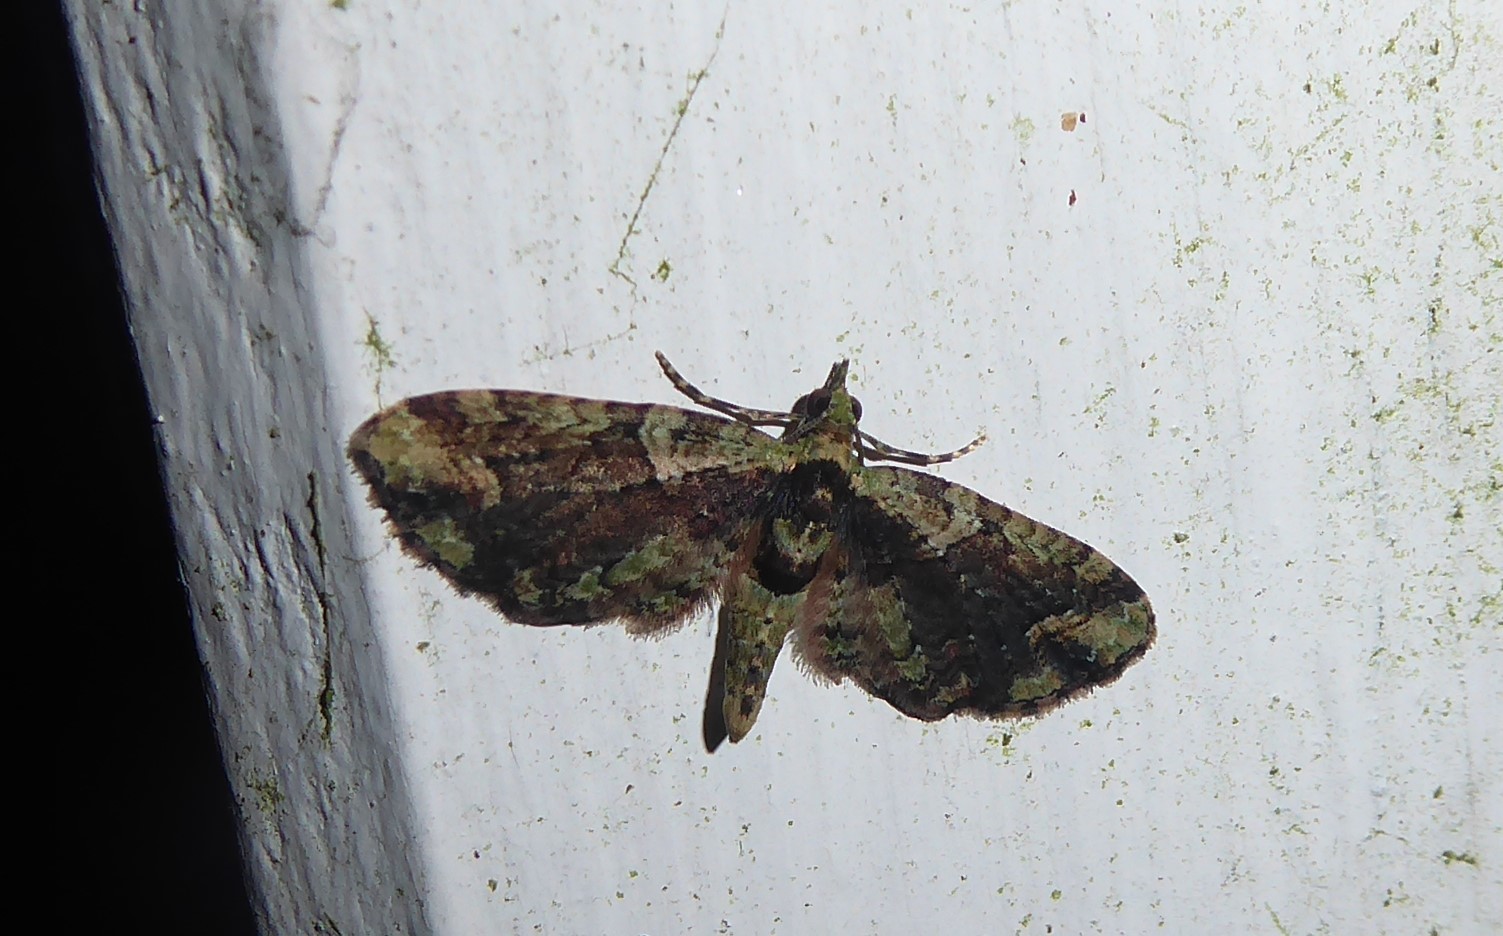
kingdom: Animalia
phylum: Arthropoda
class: Insecta
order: Lepidoptera
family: Geometridae
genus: Idaea
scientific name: Idaea mutanda
